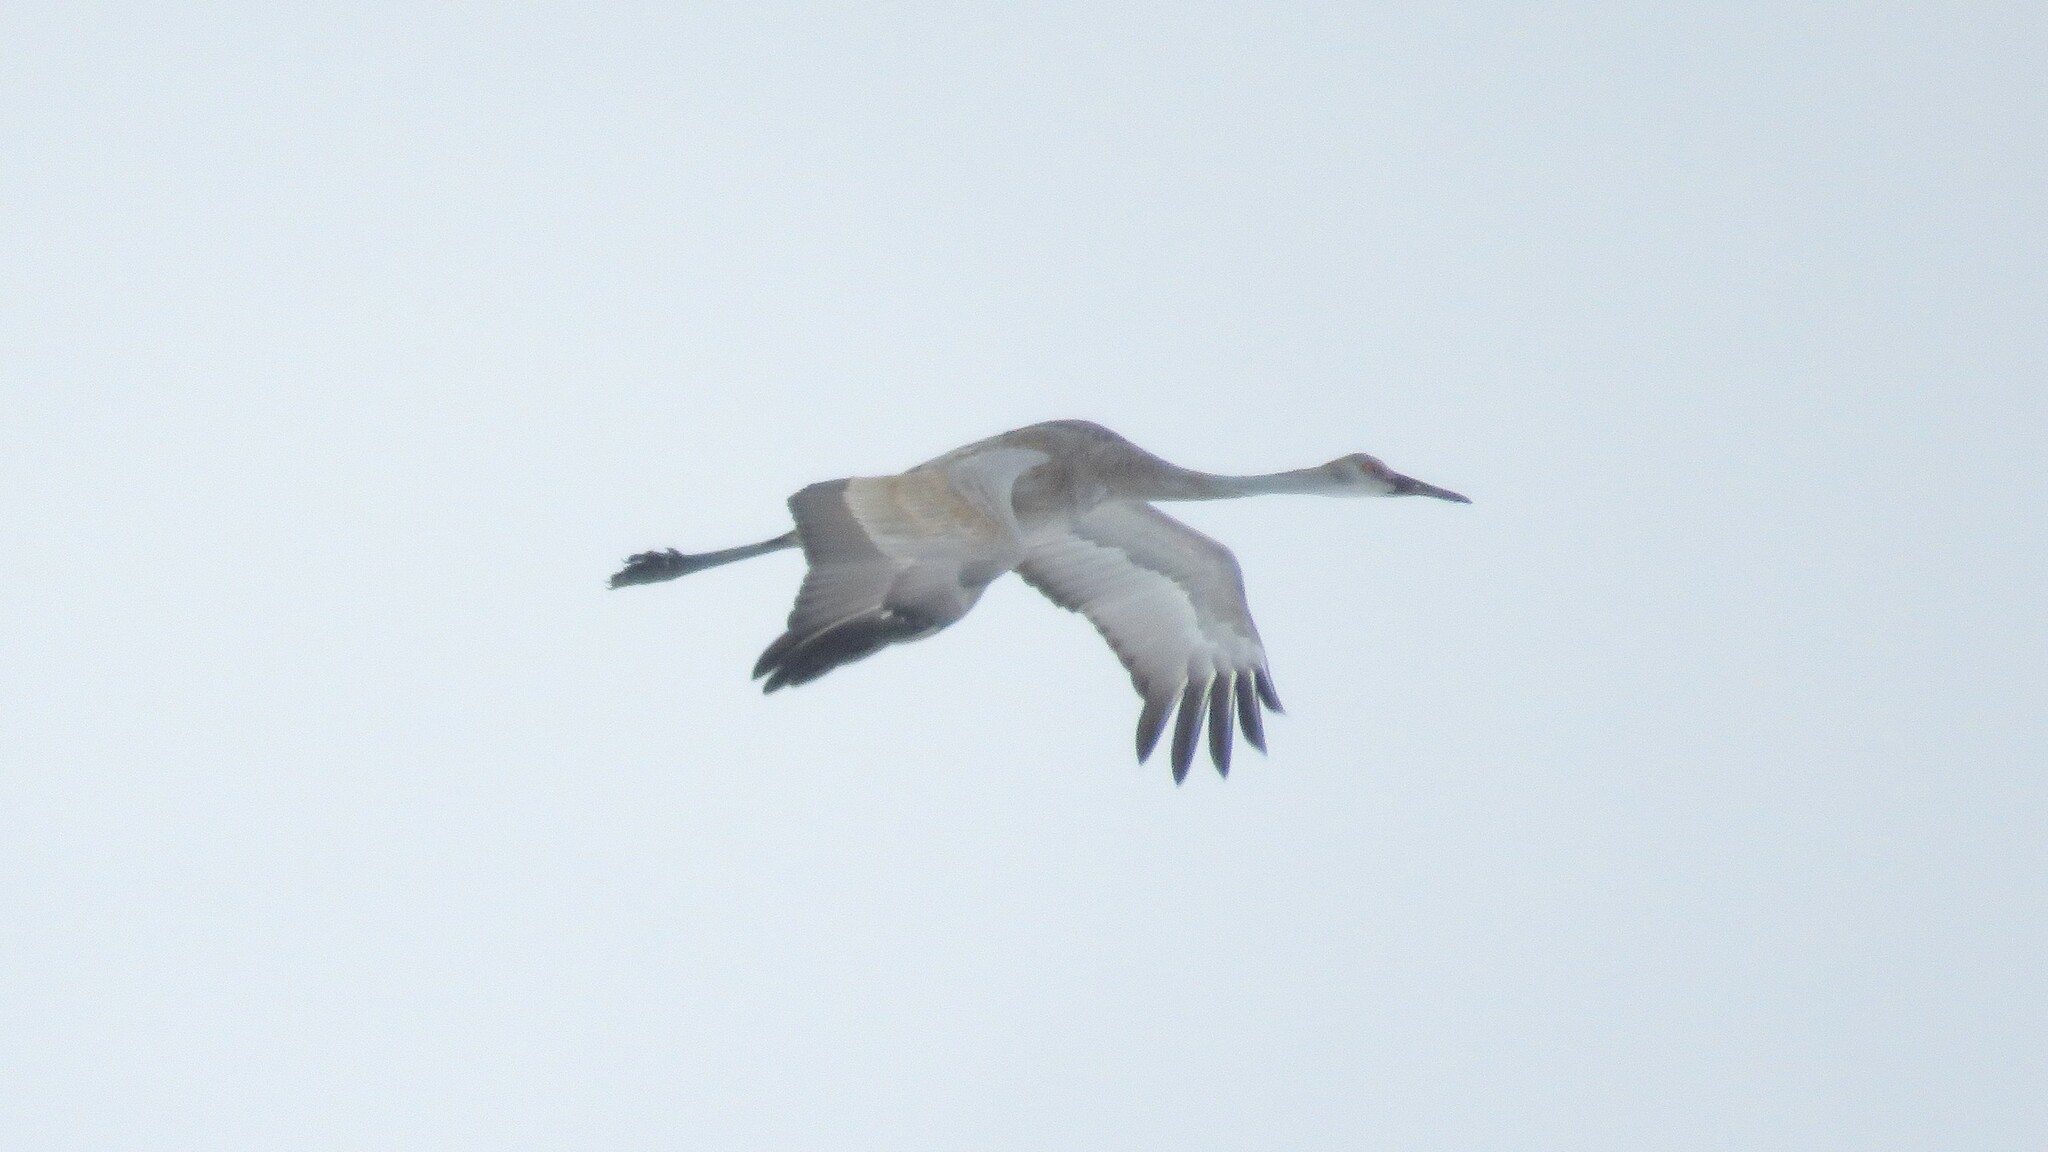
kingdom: Animalia
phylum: Chordata
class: Aves
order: Gruiformes
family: Gruidae
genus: Grus
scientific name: Grus canadensis
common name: Sandhill crane
